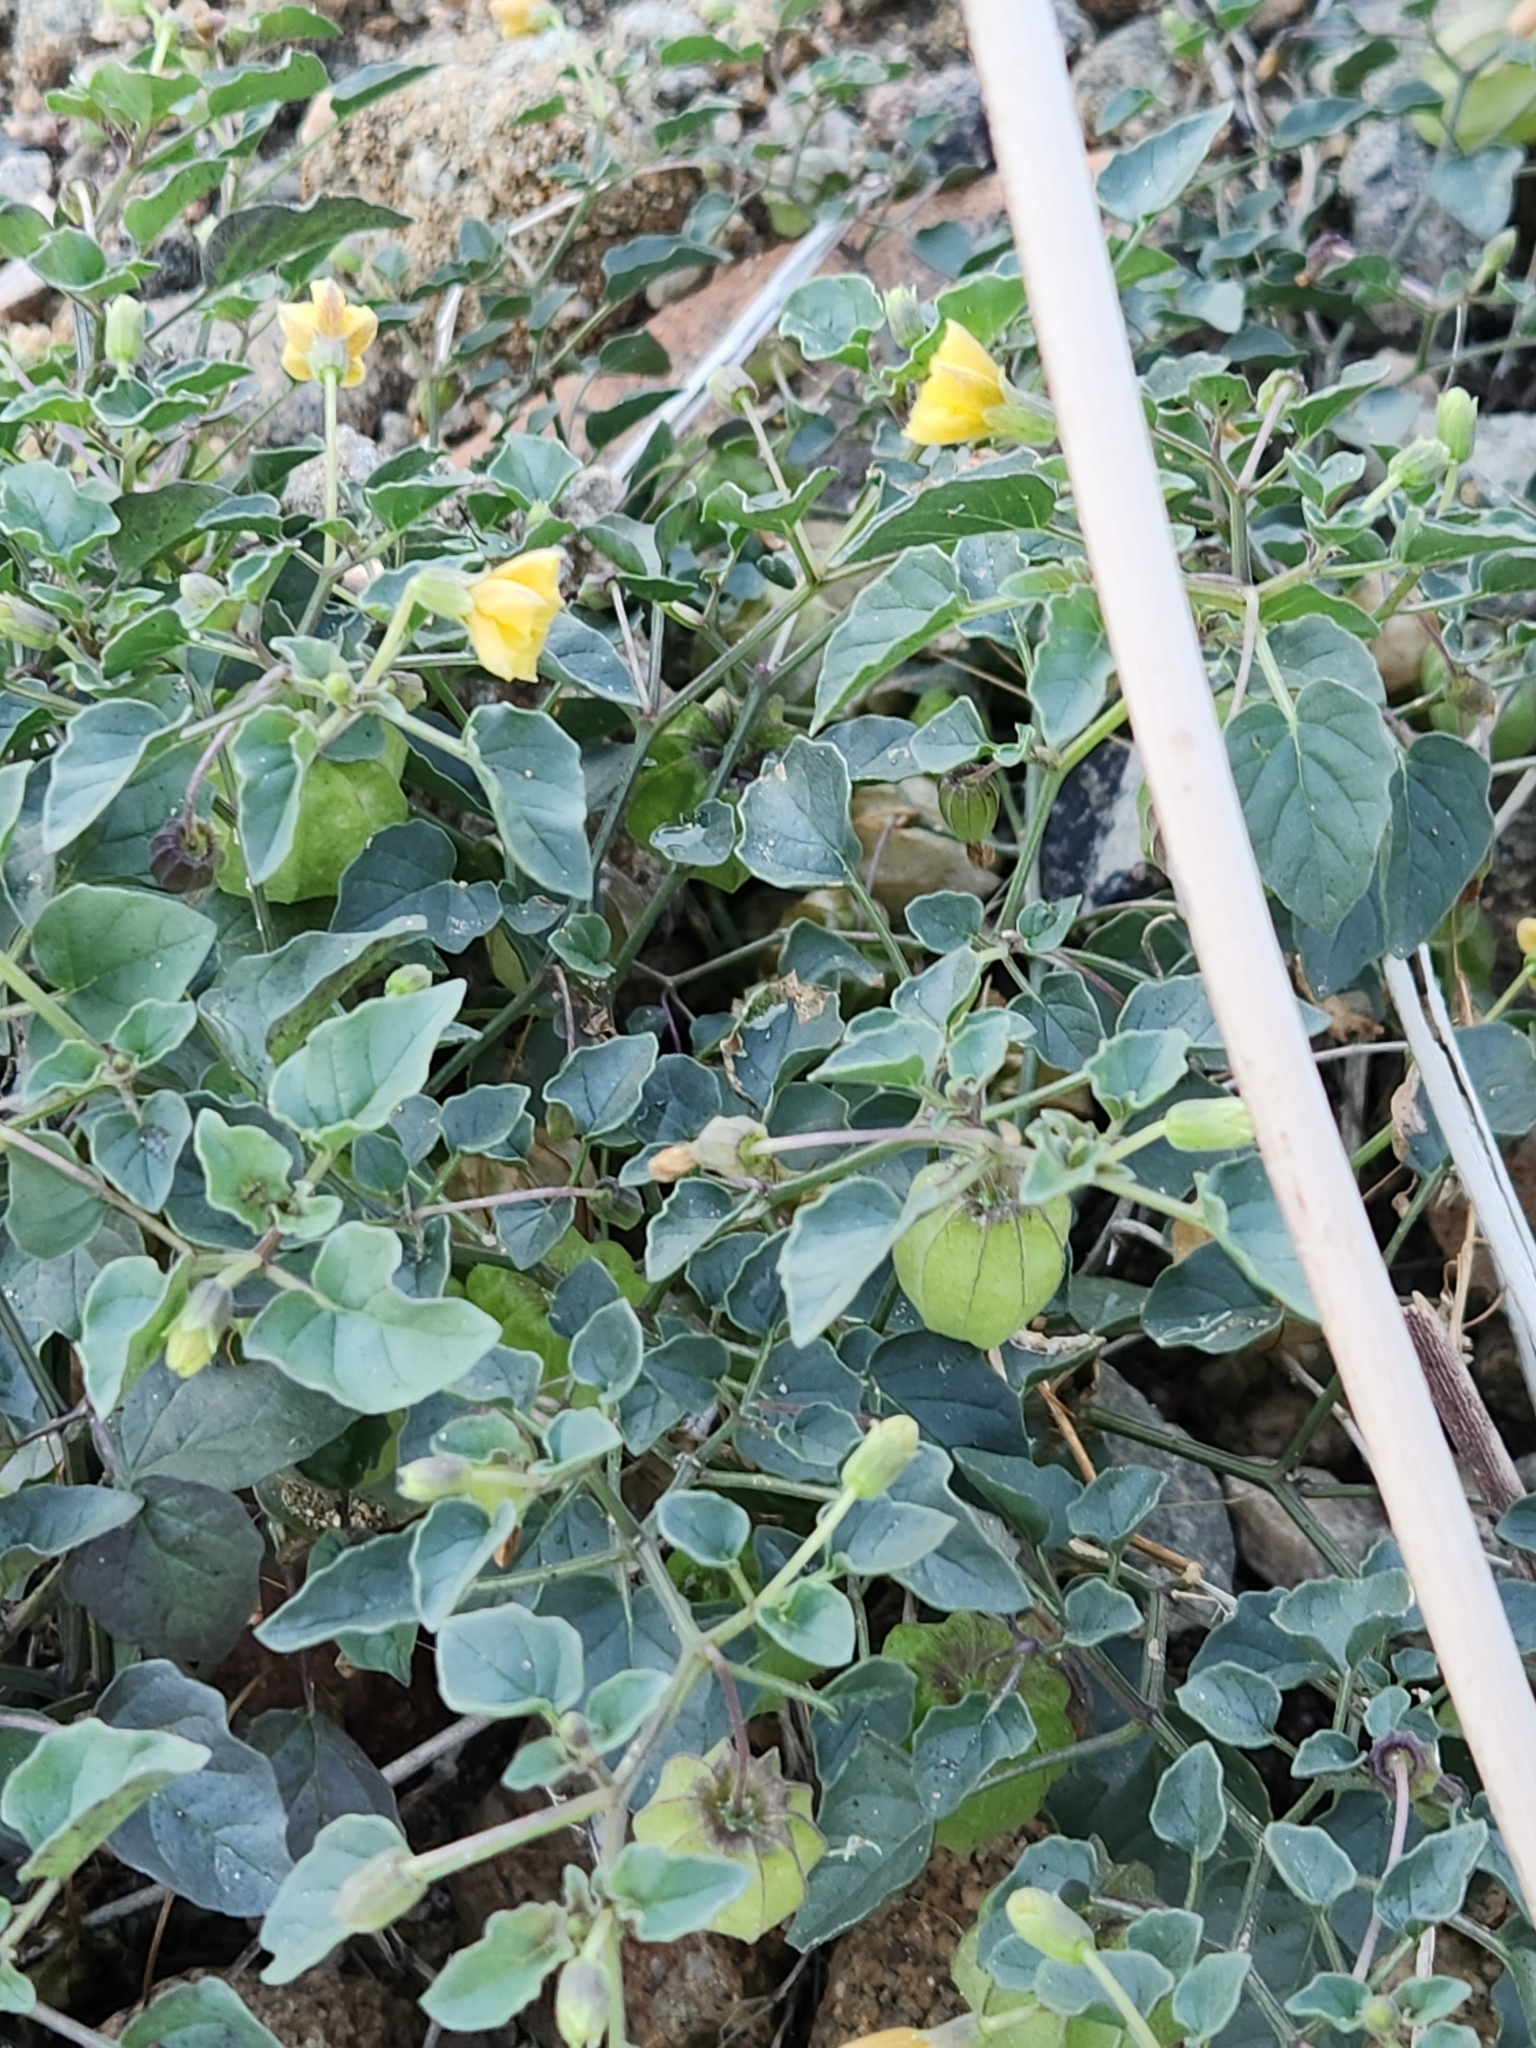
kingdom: Plantae
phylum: Tracheophyta
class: Magnoliopsida
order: Solanales
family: Solanaceae
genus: Physalis
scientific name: Physalis crassifolia
